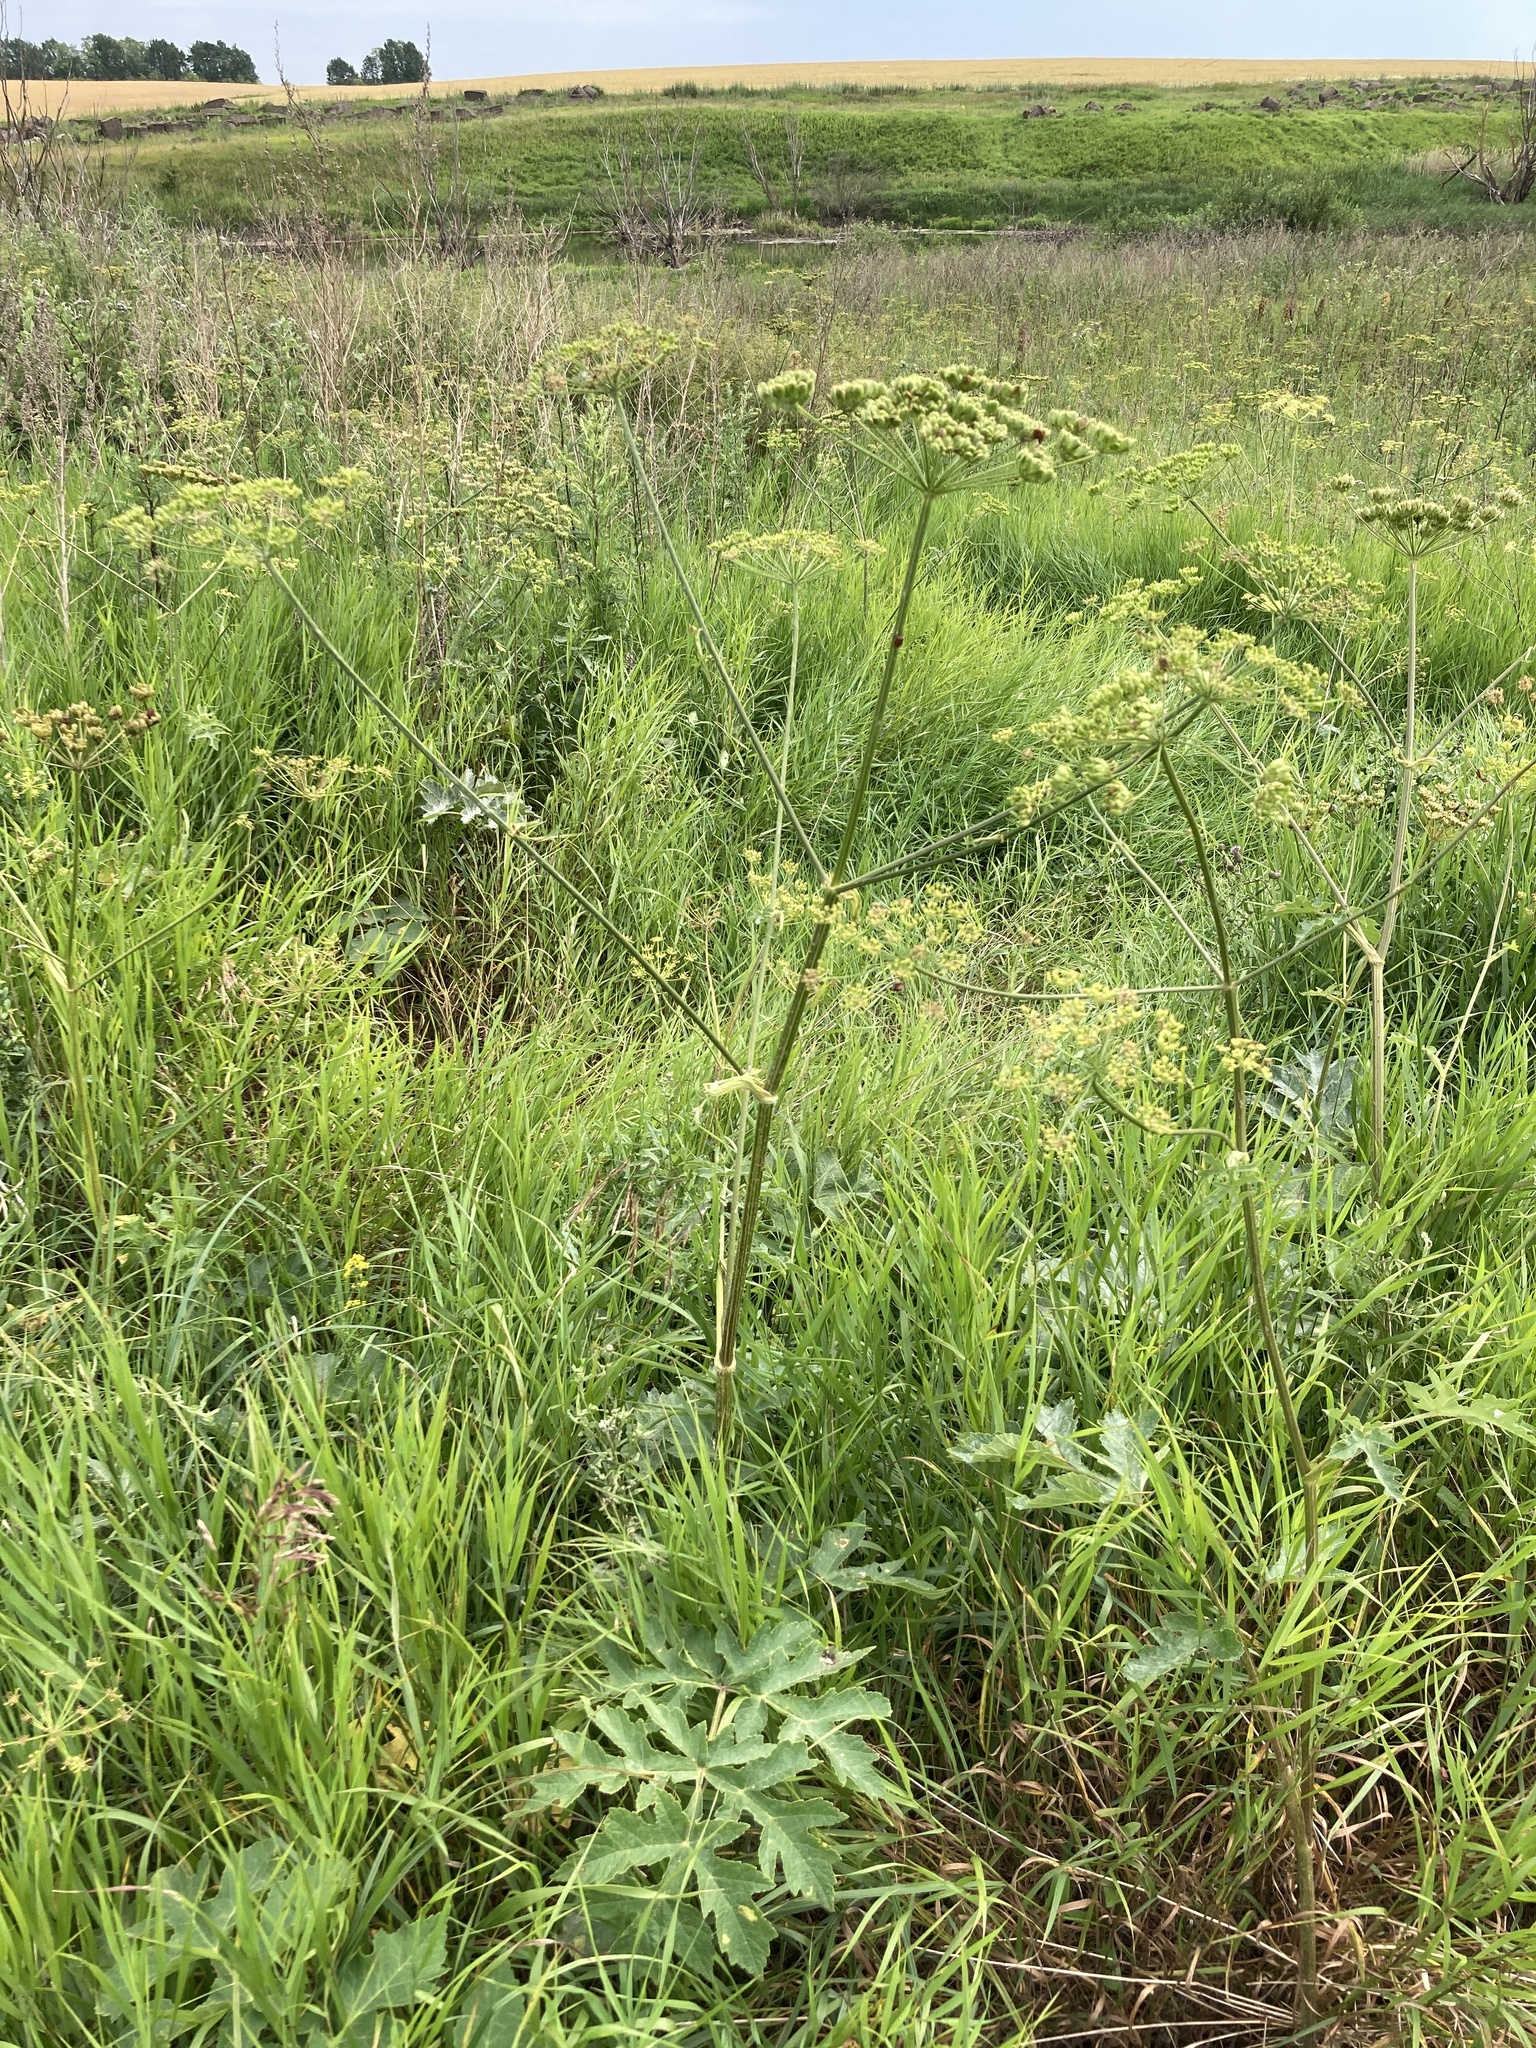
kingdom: Plantae
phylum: Tracheophyta
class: Magnoliopsida
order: Apiales
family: Apiaceae
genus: Heracleum
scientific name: Heracleum sphondylium
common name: Hogweed
